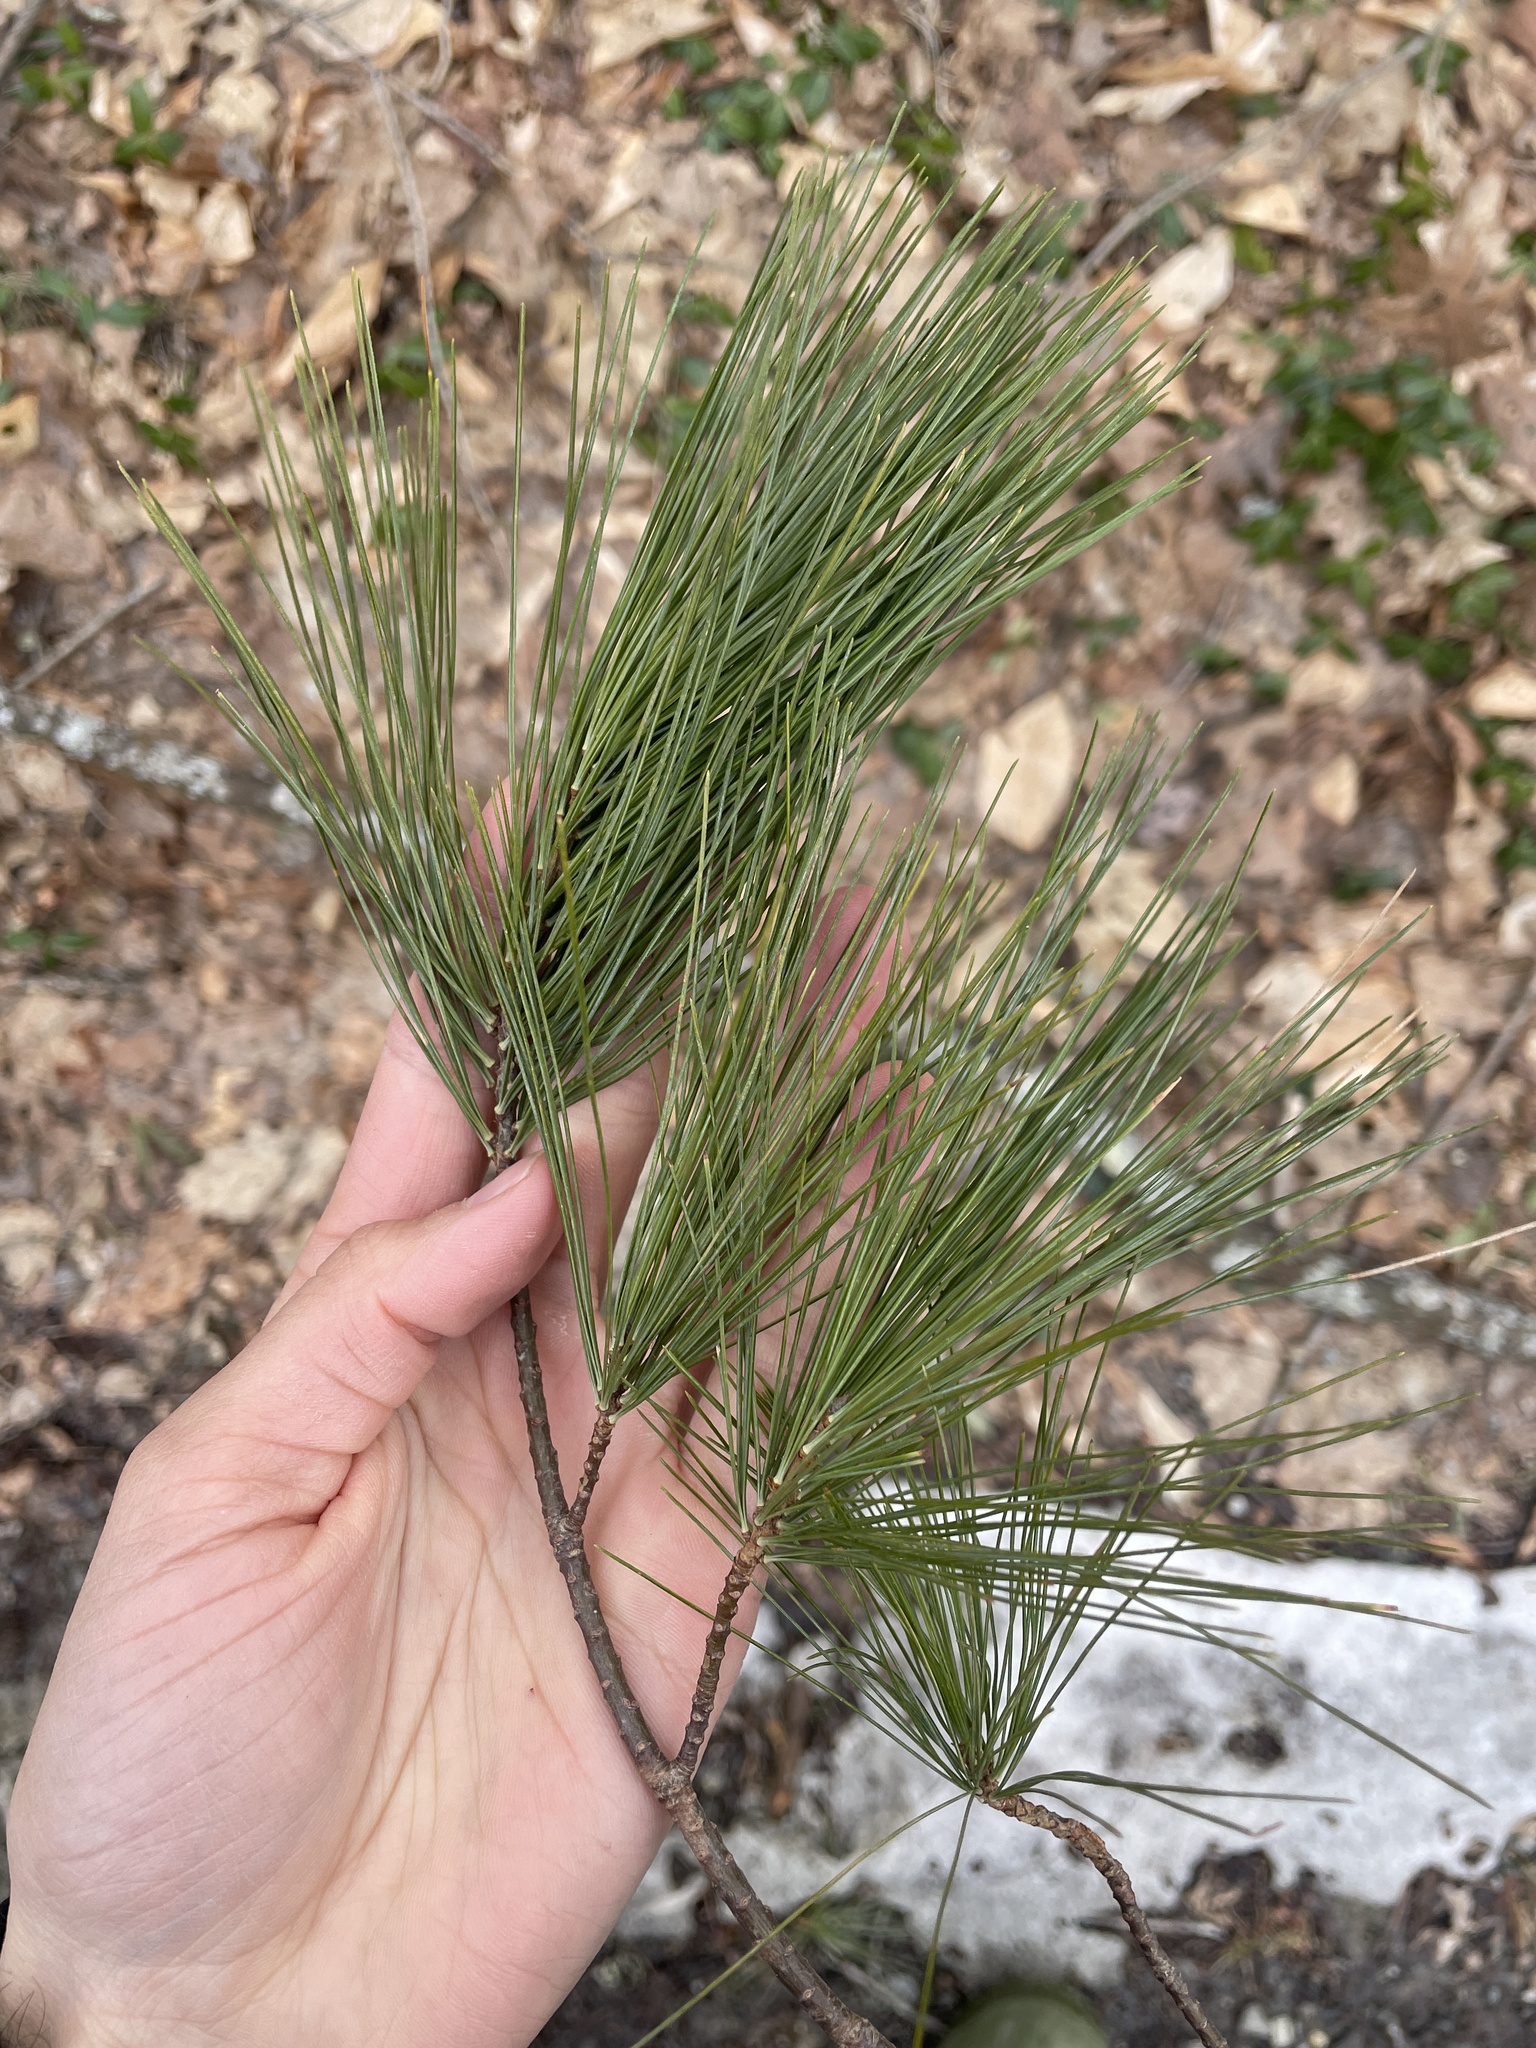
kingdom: Plantae
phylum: Tracheophyta
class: Pinopsida
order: Pinales
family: Pinaceae
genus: Pinus
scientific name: Pinus strobus
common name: Weymouth pine
